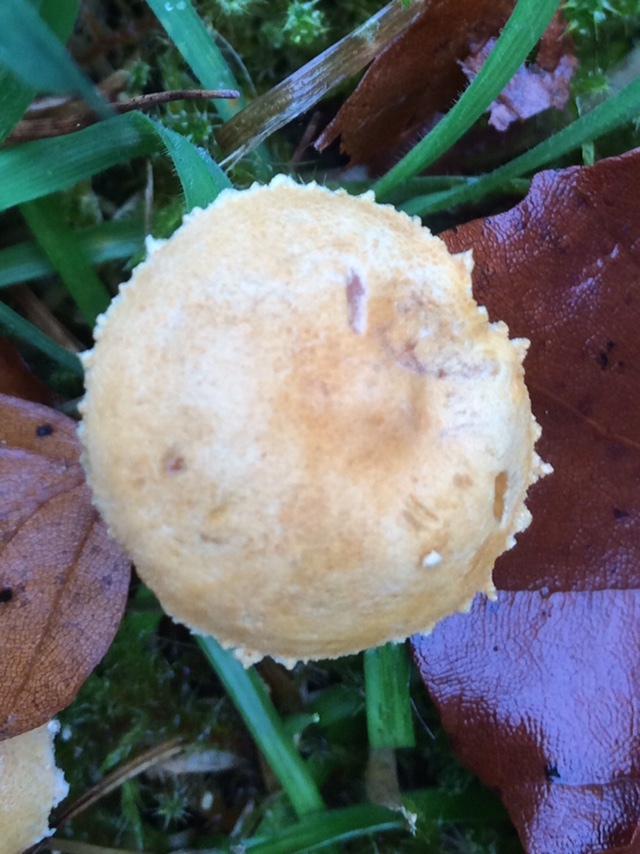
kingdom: Fungi
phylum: Basidiomycota
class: Agaricomycetes
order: Agaricales
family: Tricholomataceae
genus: Cystoderma
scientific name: Cystoderma amianthinum
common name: Earthy powdercap
